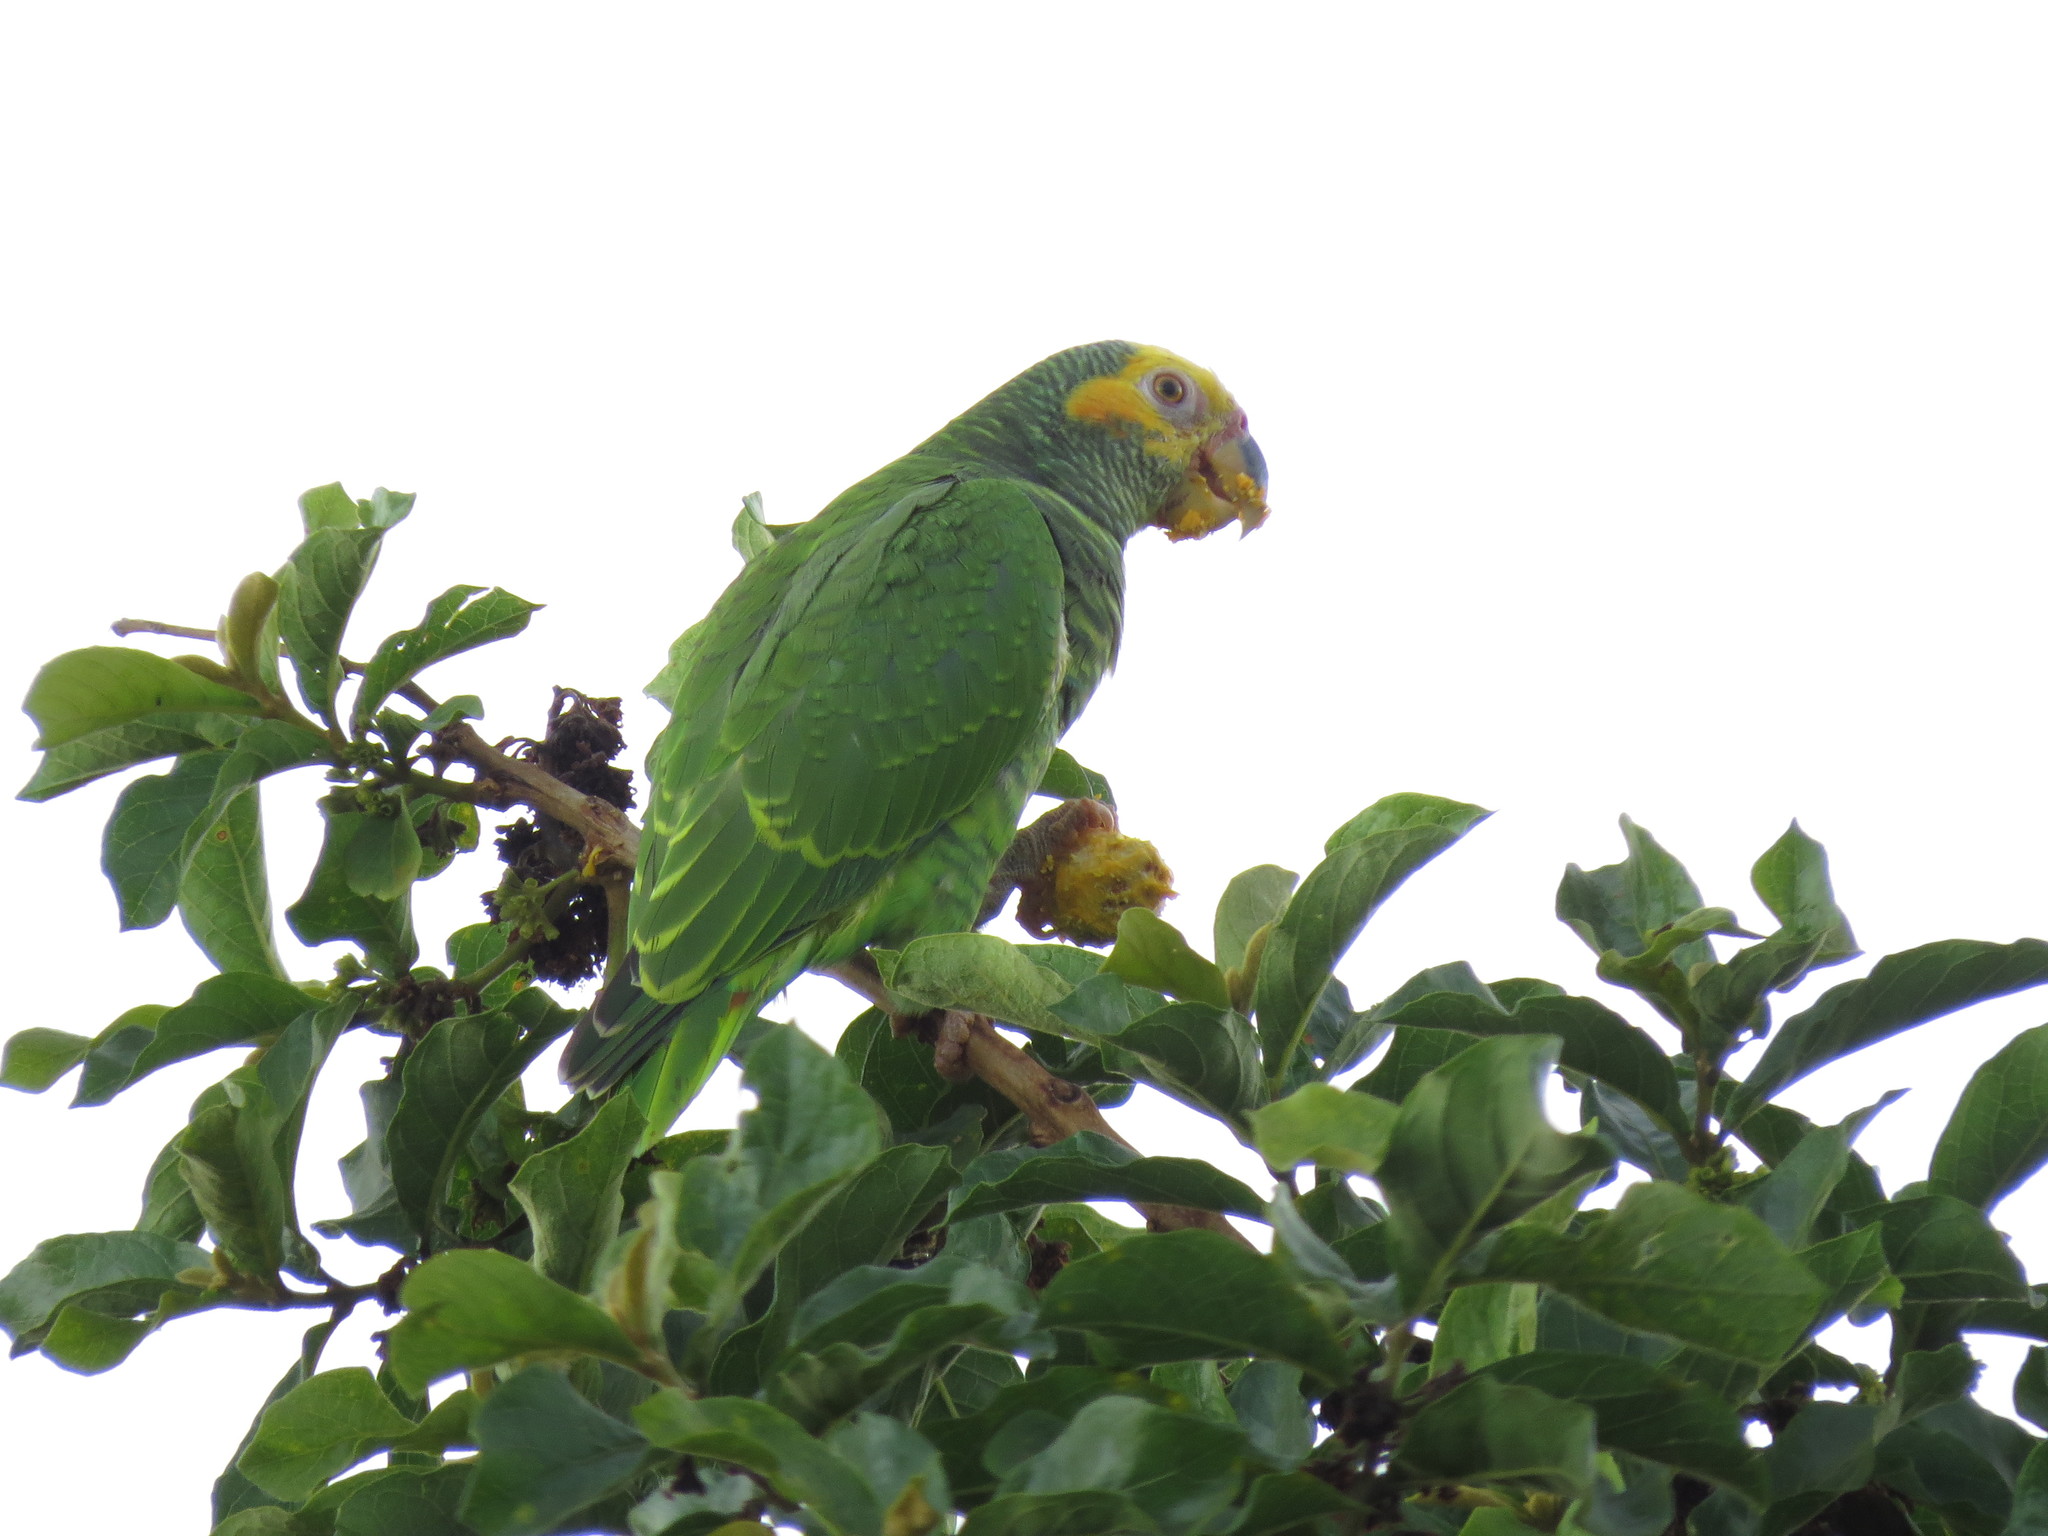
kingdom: Animalia
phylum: Chordata
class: Aves
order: Psittaciformes
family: Psittacidae
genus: Amazona
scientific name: Amazona xanthops
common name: Yellow-faced amazon
